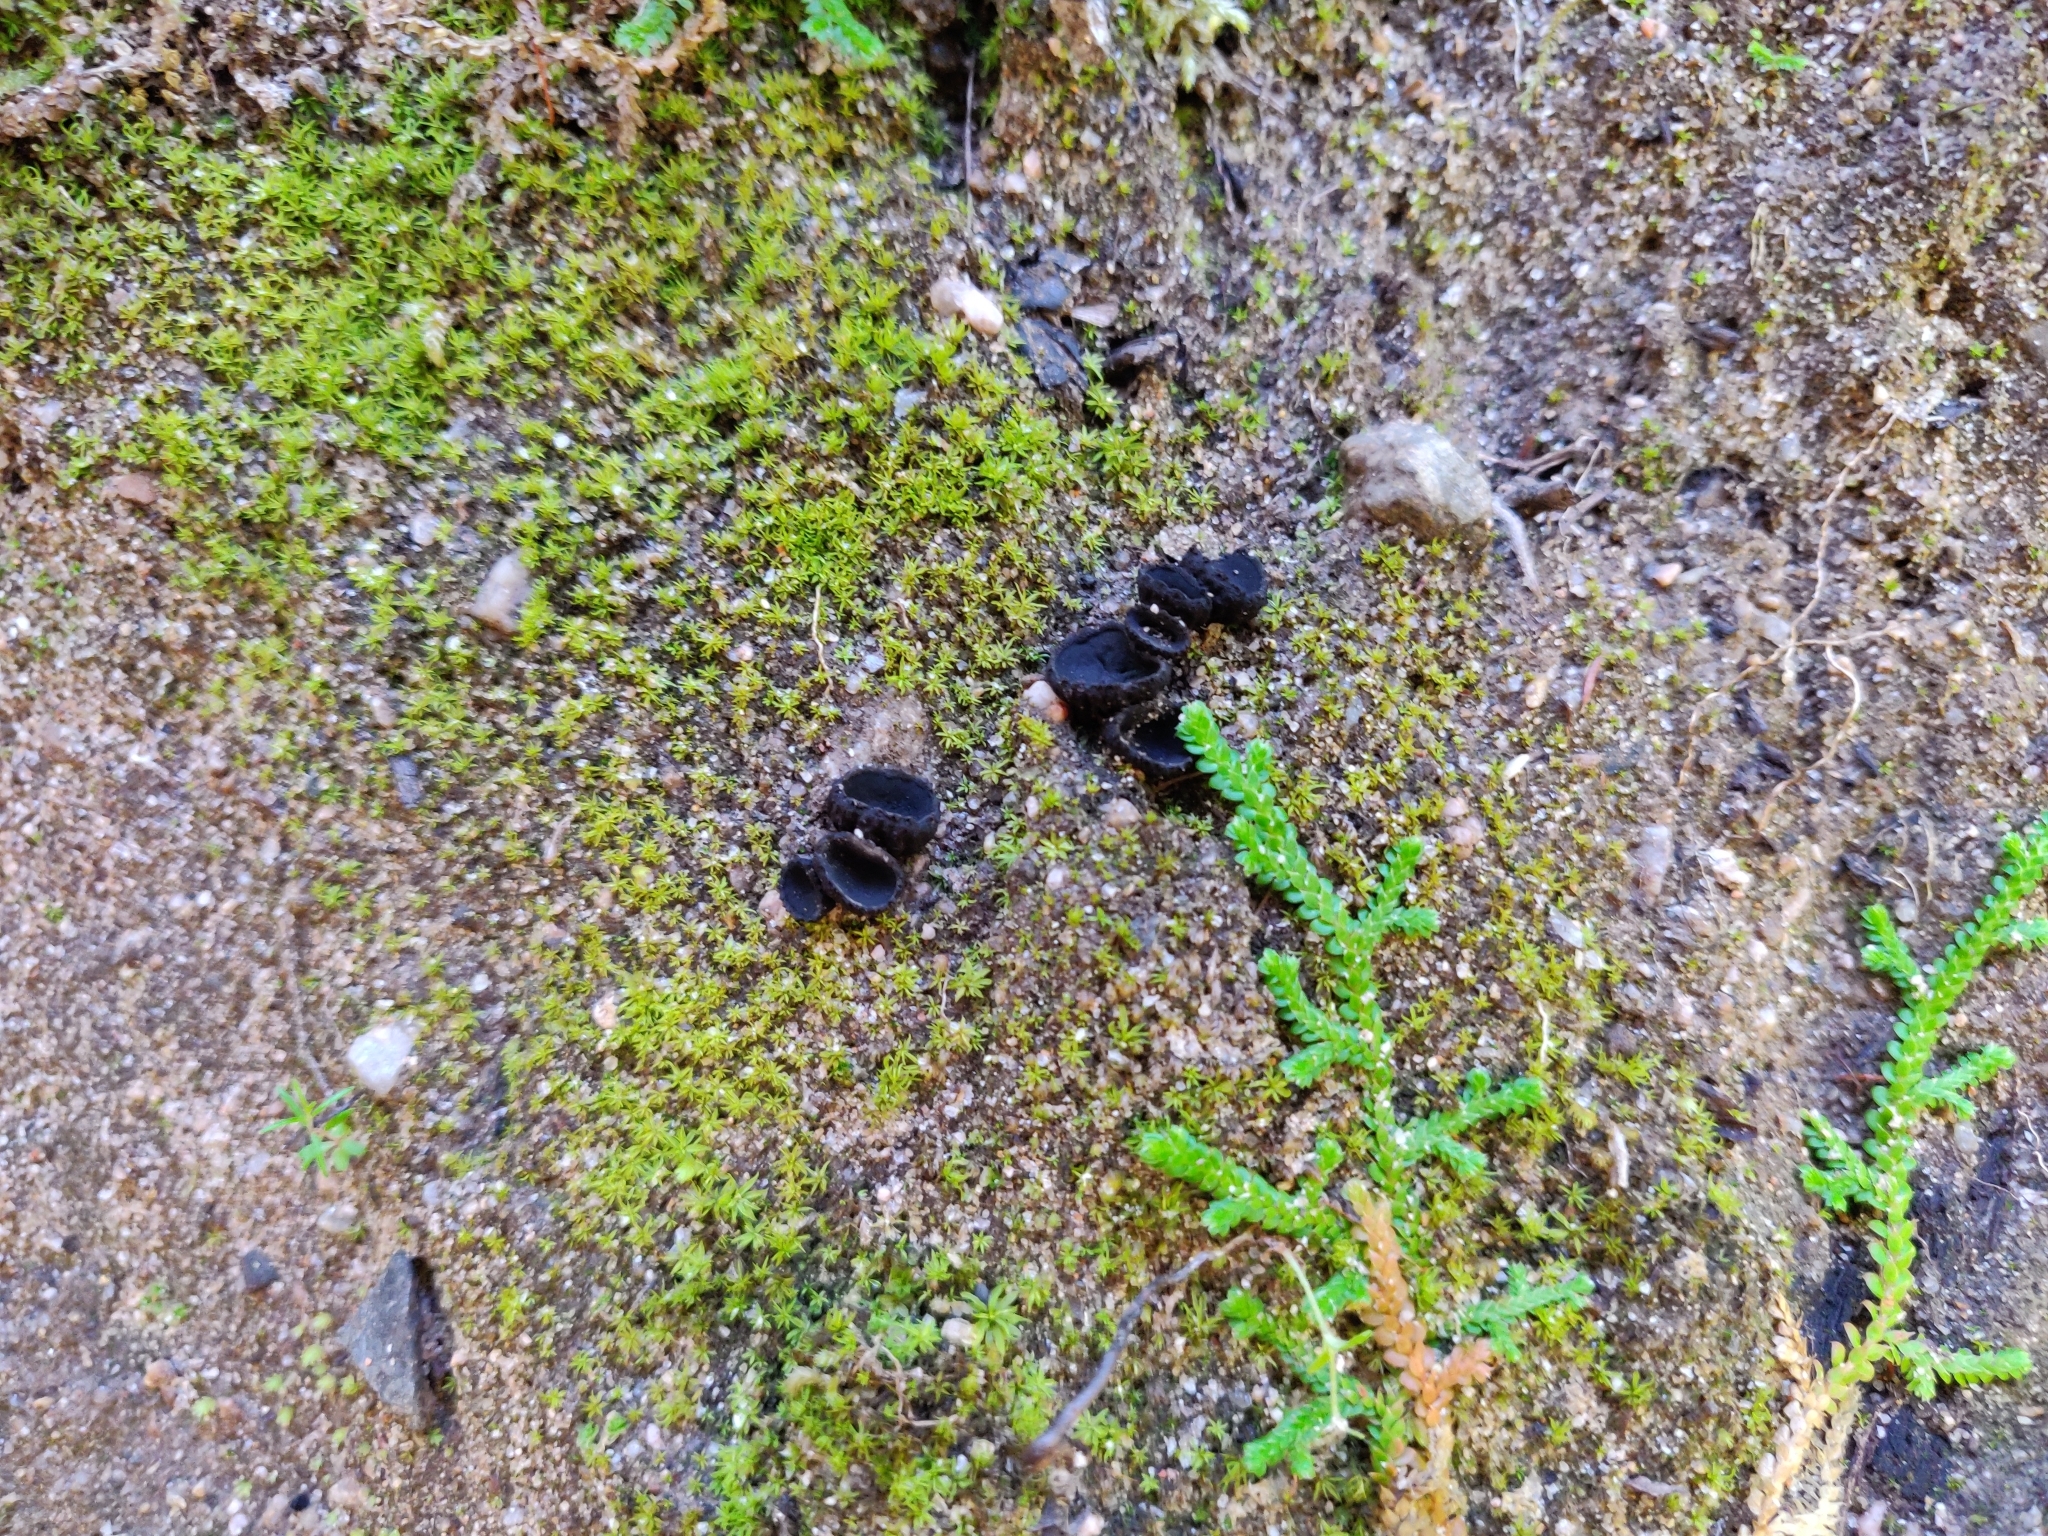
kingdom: Fungi
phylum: Ascomycota
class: Pezizomycetes
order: Pezizales
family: Sarcosomataceae
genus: Plectania
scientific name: Plectania rhytidia
